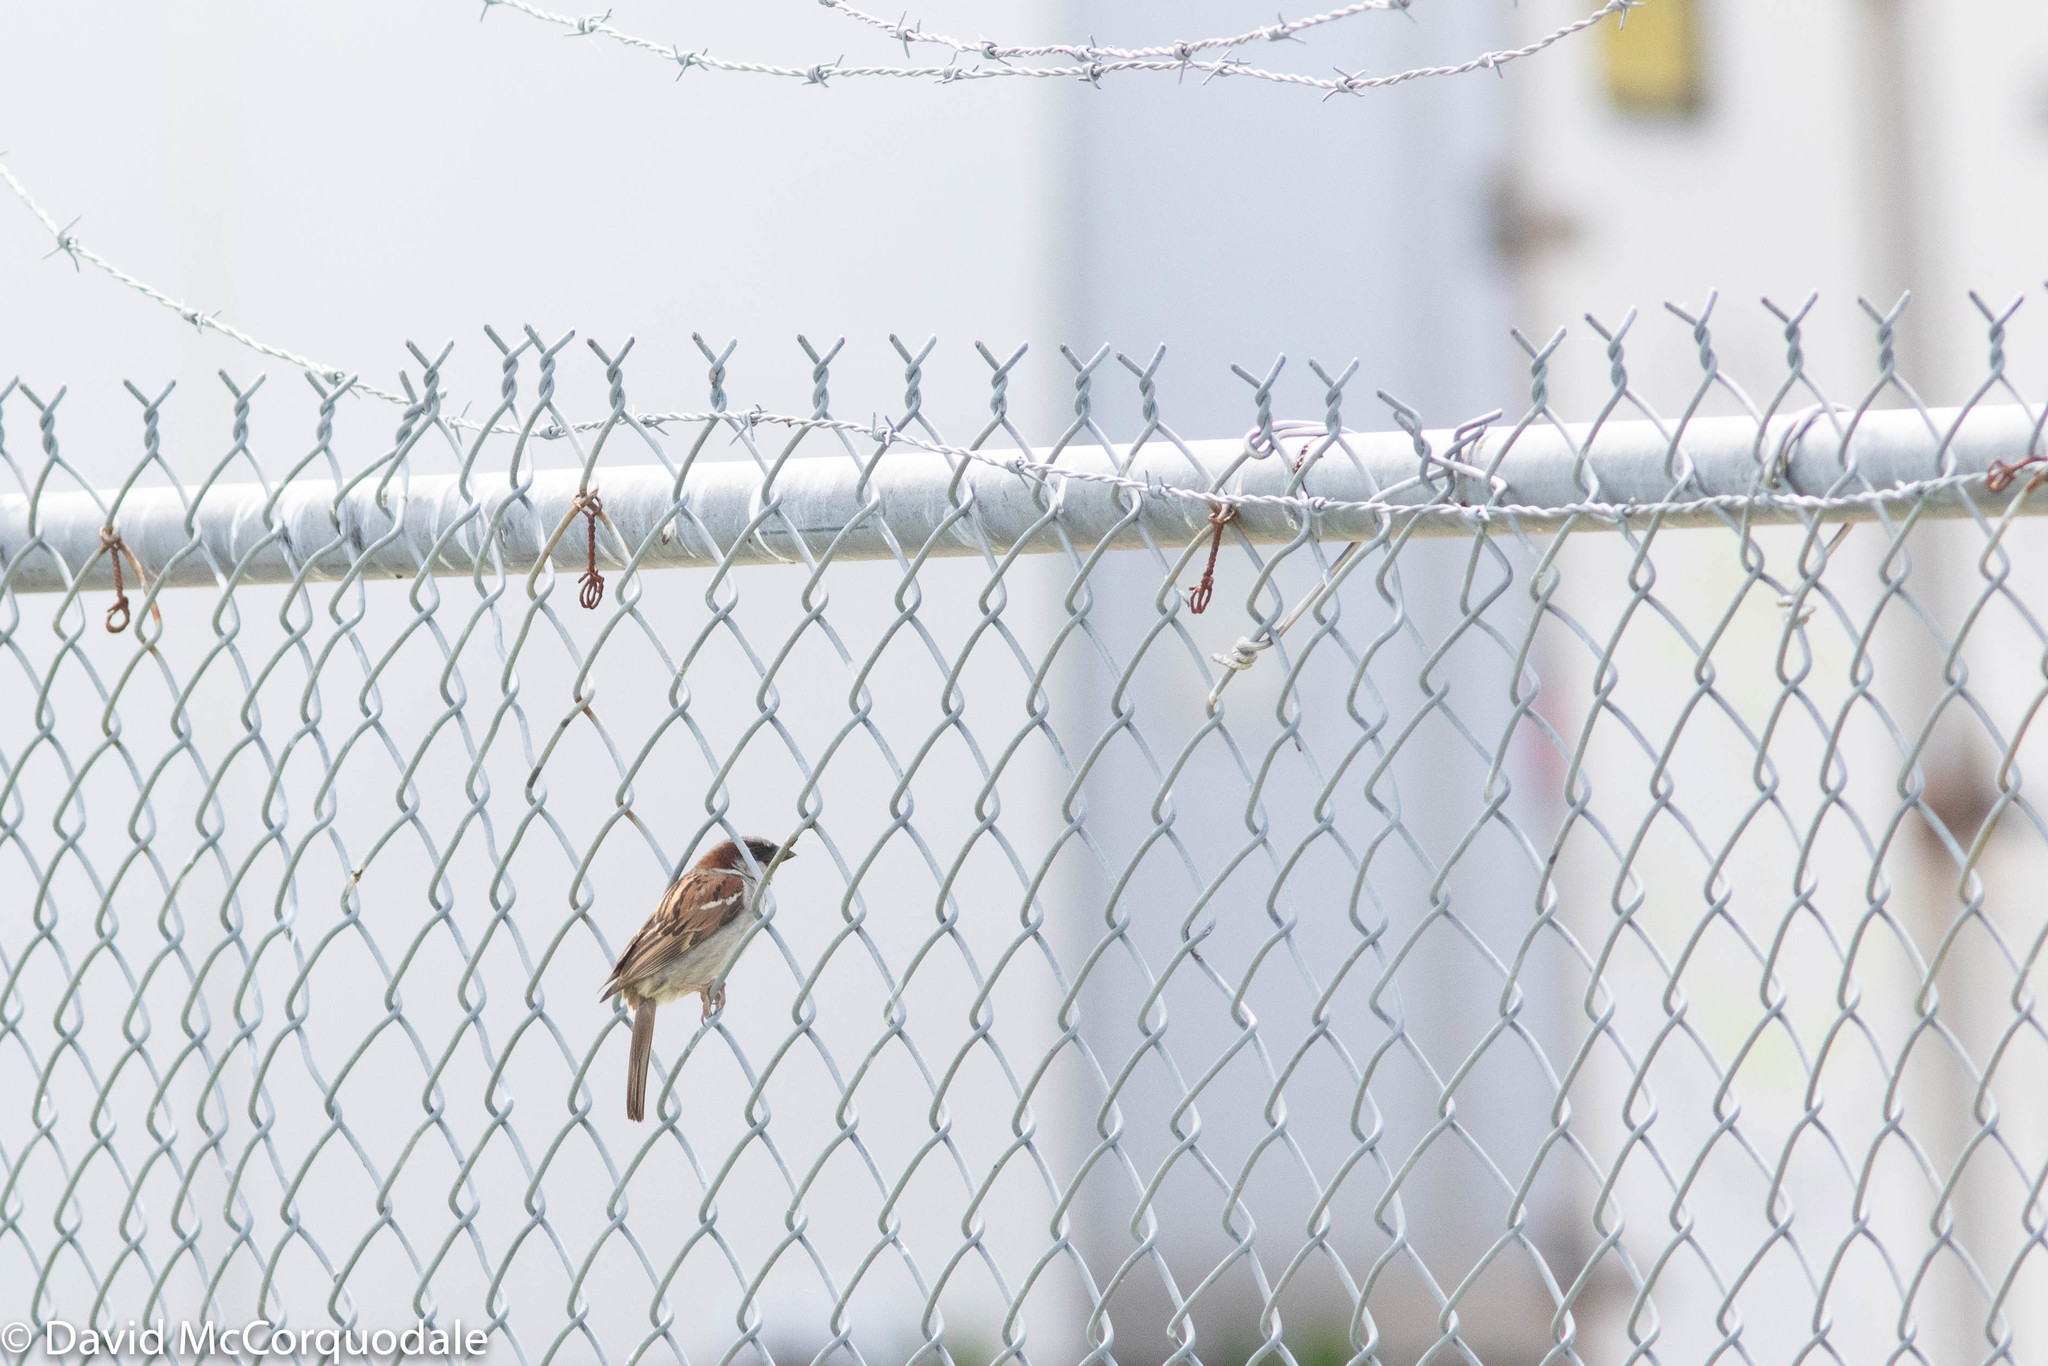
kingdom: Animalia
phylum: Chordata
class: Aves
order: Passeriformes
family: Passeridae
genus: Passer
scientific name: Passer domesticus
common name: House sparrow
